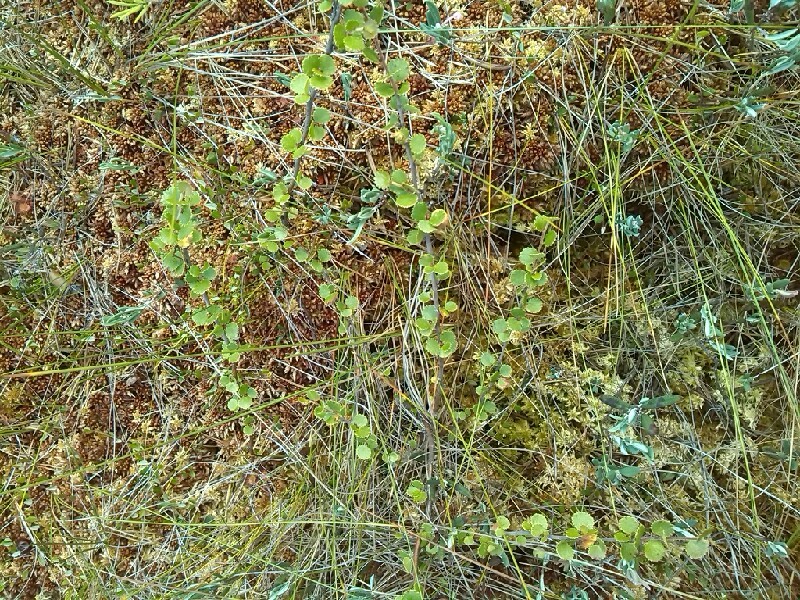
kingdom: Plantae
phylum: Tracheophyta
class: Magnoliopsida
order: Fagales
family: Betulaceae
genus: Betula
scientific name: Betula nana
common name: Arctic dwarf birch
